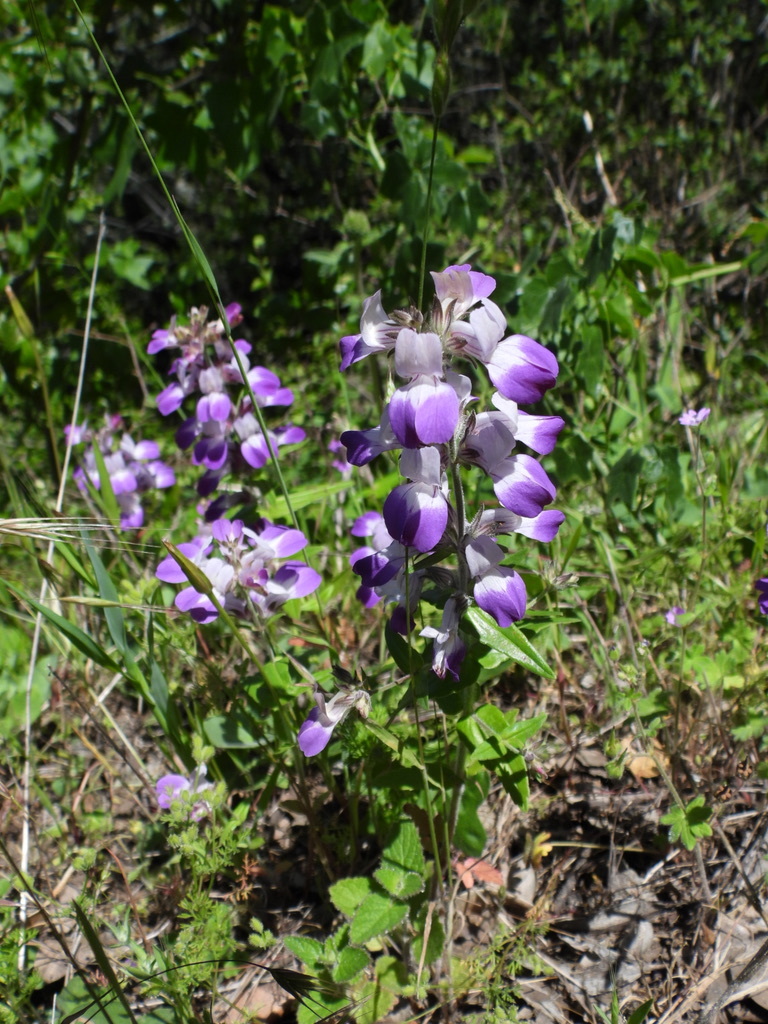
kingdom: Plantae
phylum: Tracheophyta
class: Magnoliopsida
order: Lamiales
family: Plantaginaceae
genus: Collinsia
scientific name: Collinsia heterophylla
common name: Chinese-houses
